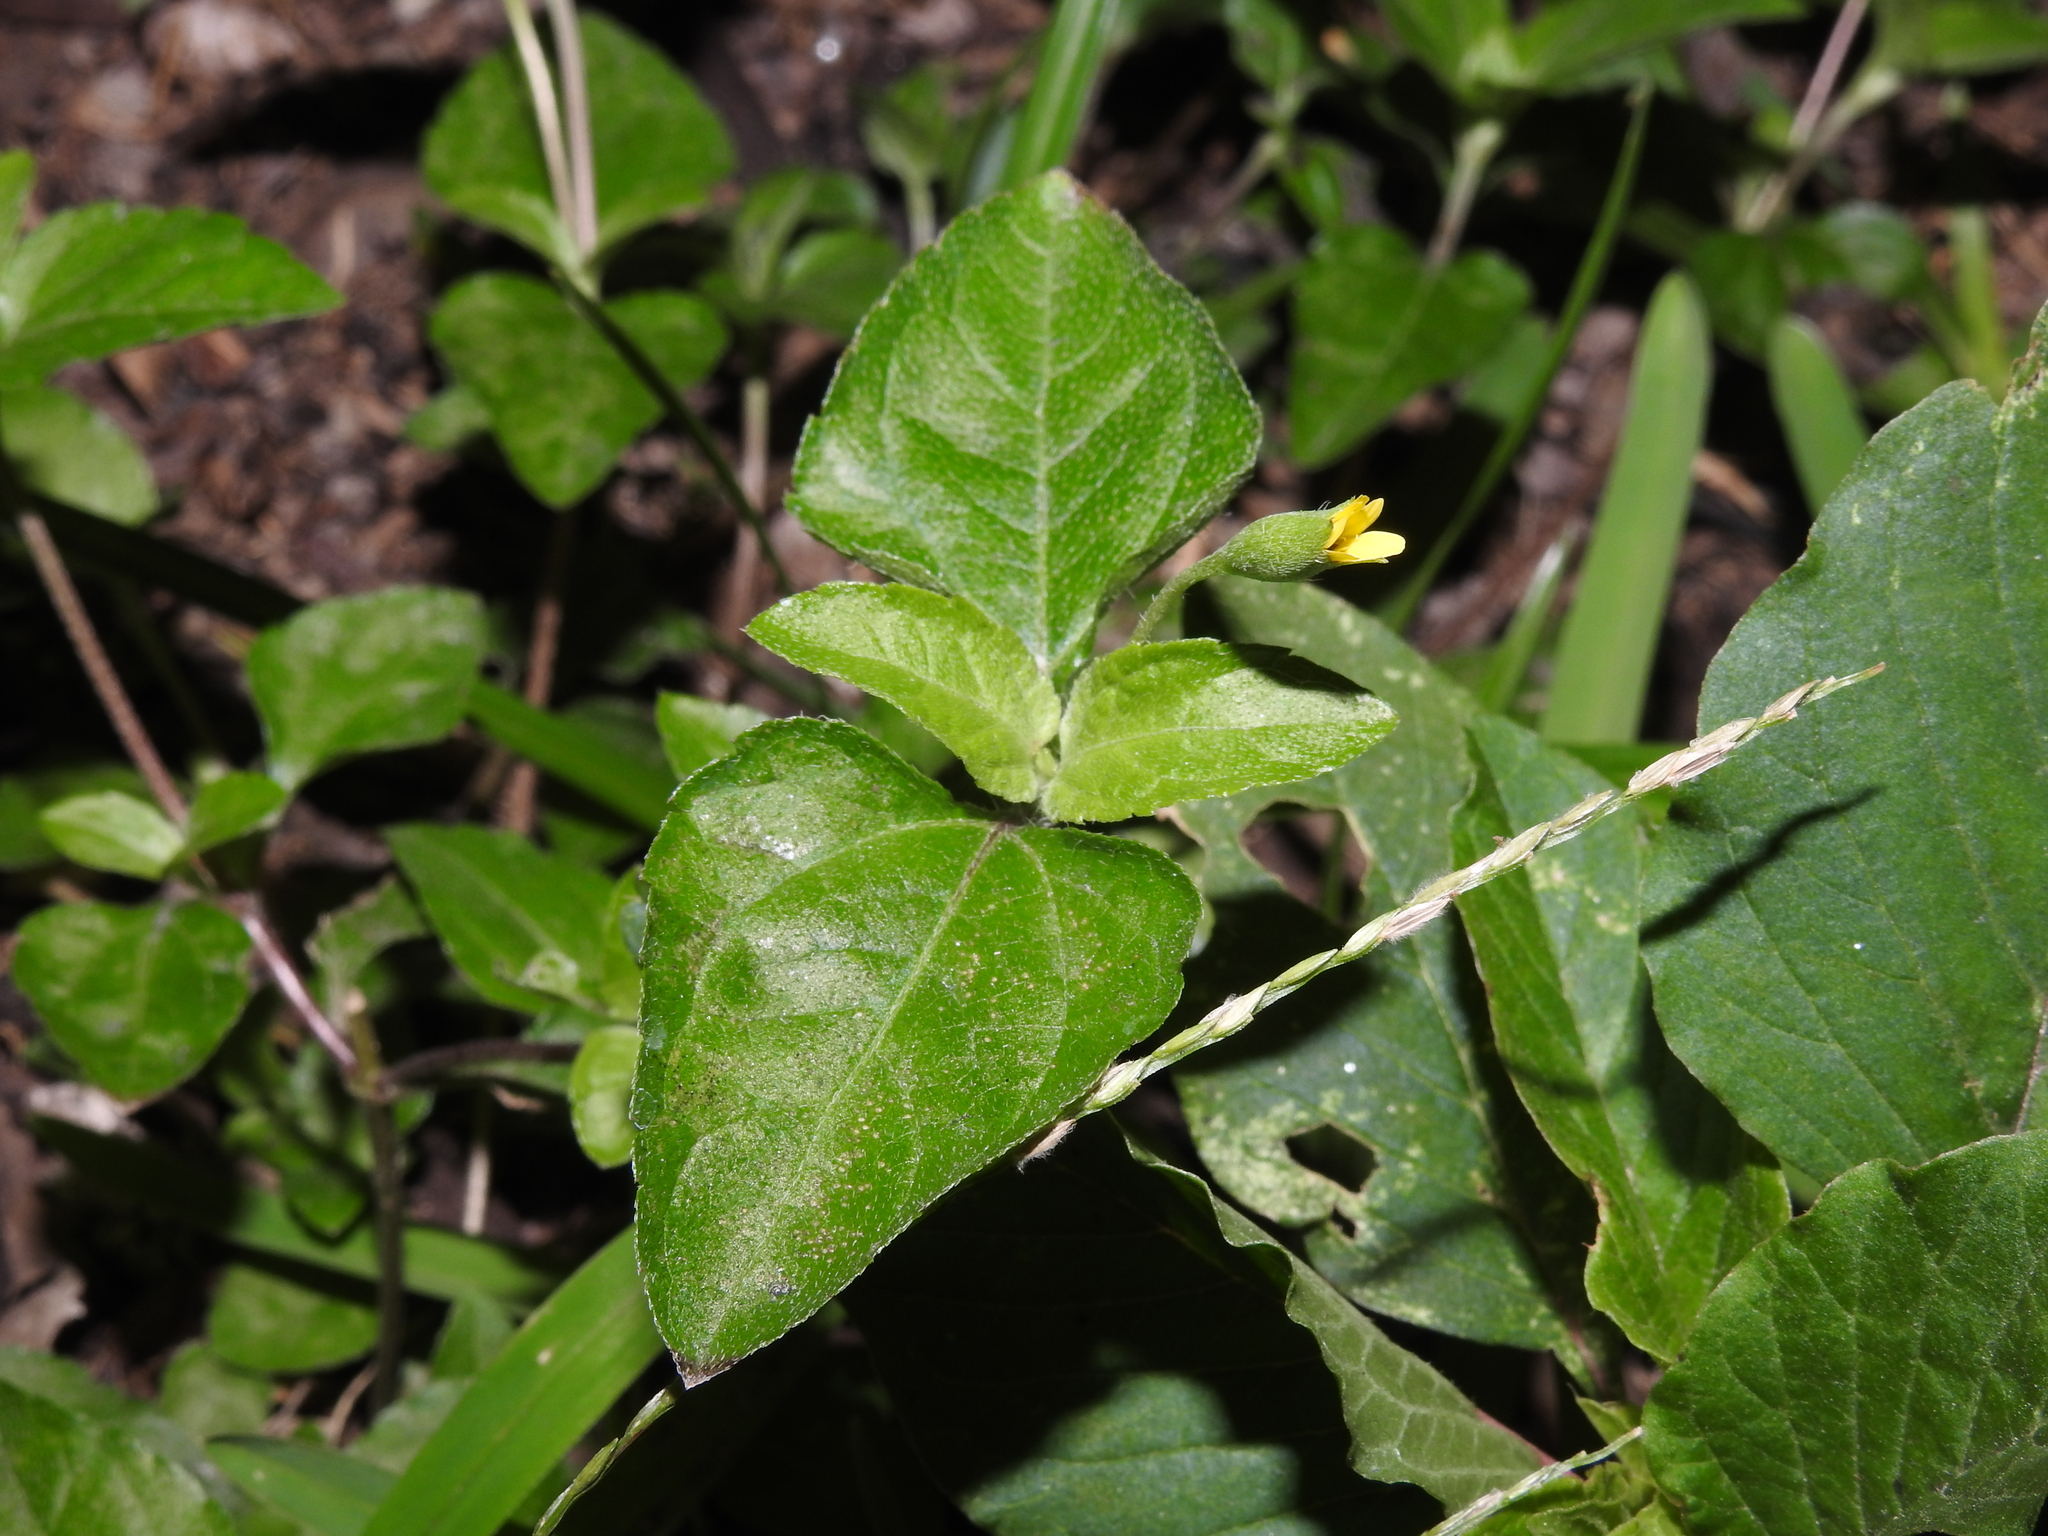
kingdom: Plantae
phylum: Tracheophyta
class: Magnoliopsida
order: Asterales
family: Asteraceae
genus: Calyptocarpus
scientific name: Calyptocarpus vialis
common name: Straggler daisy
